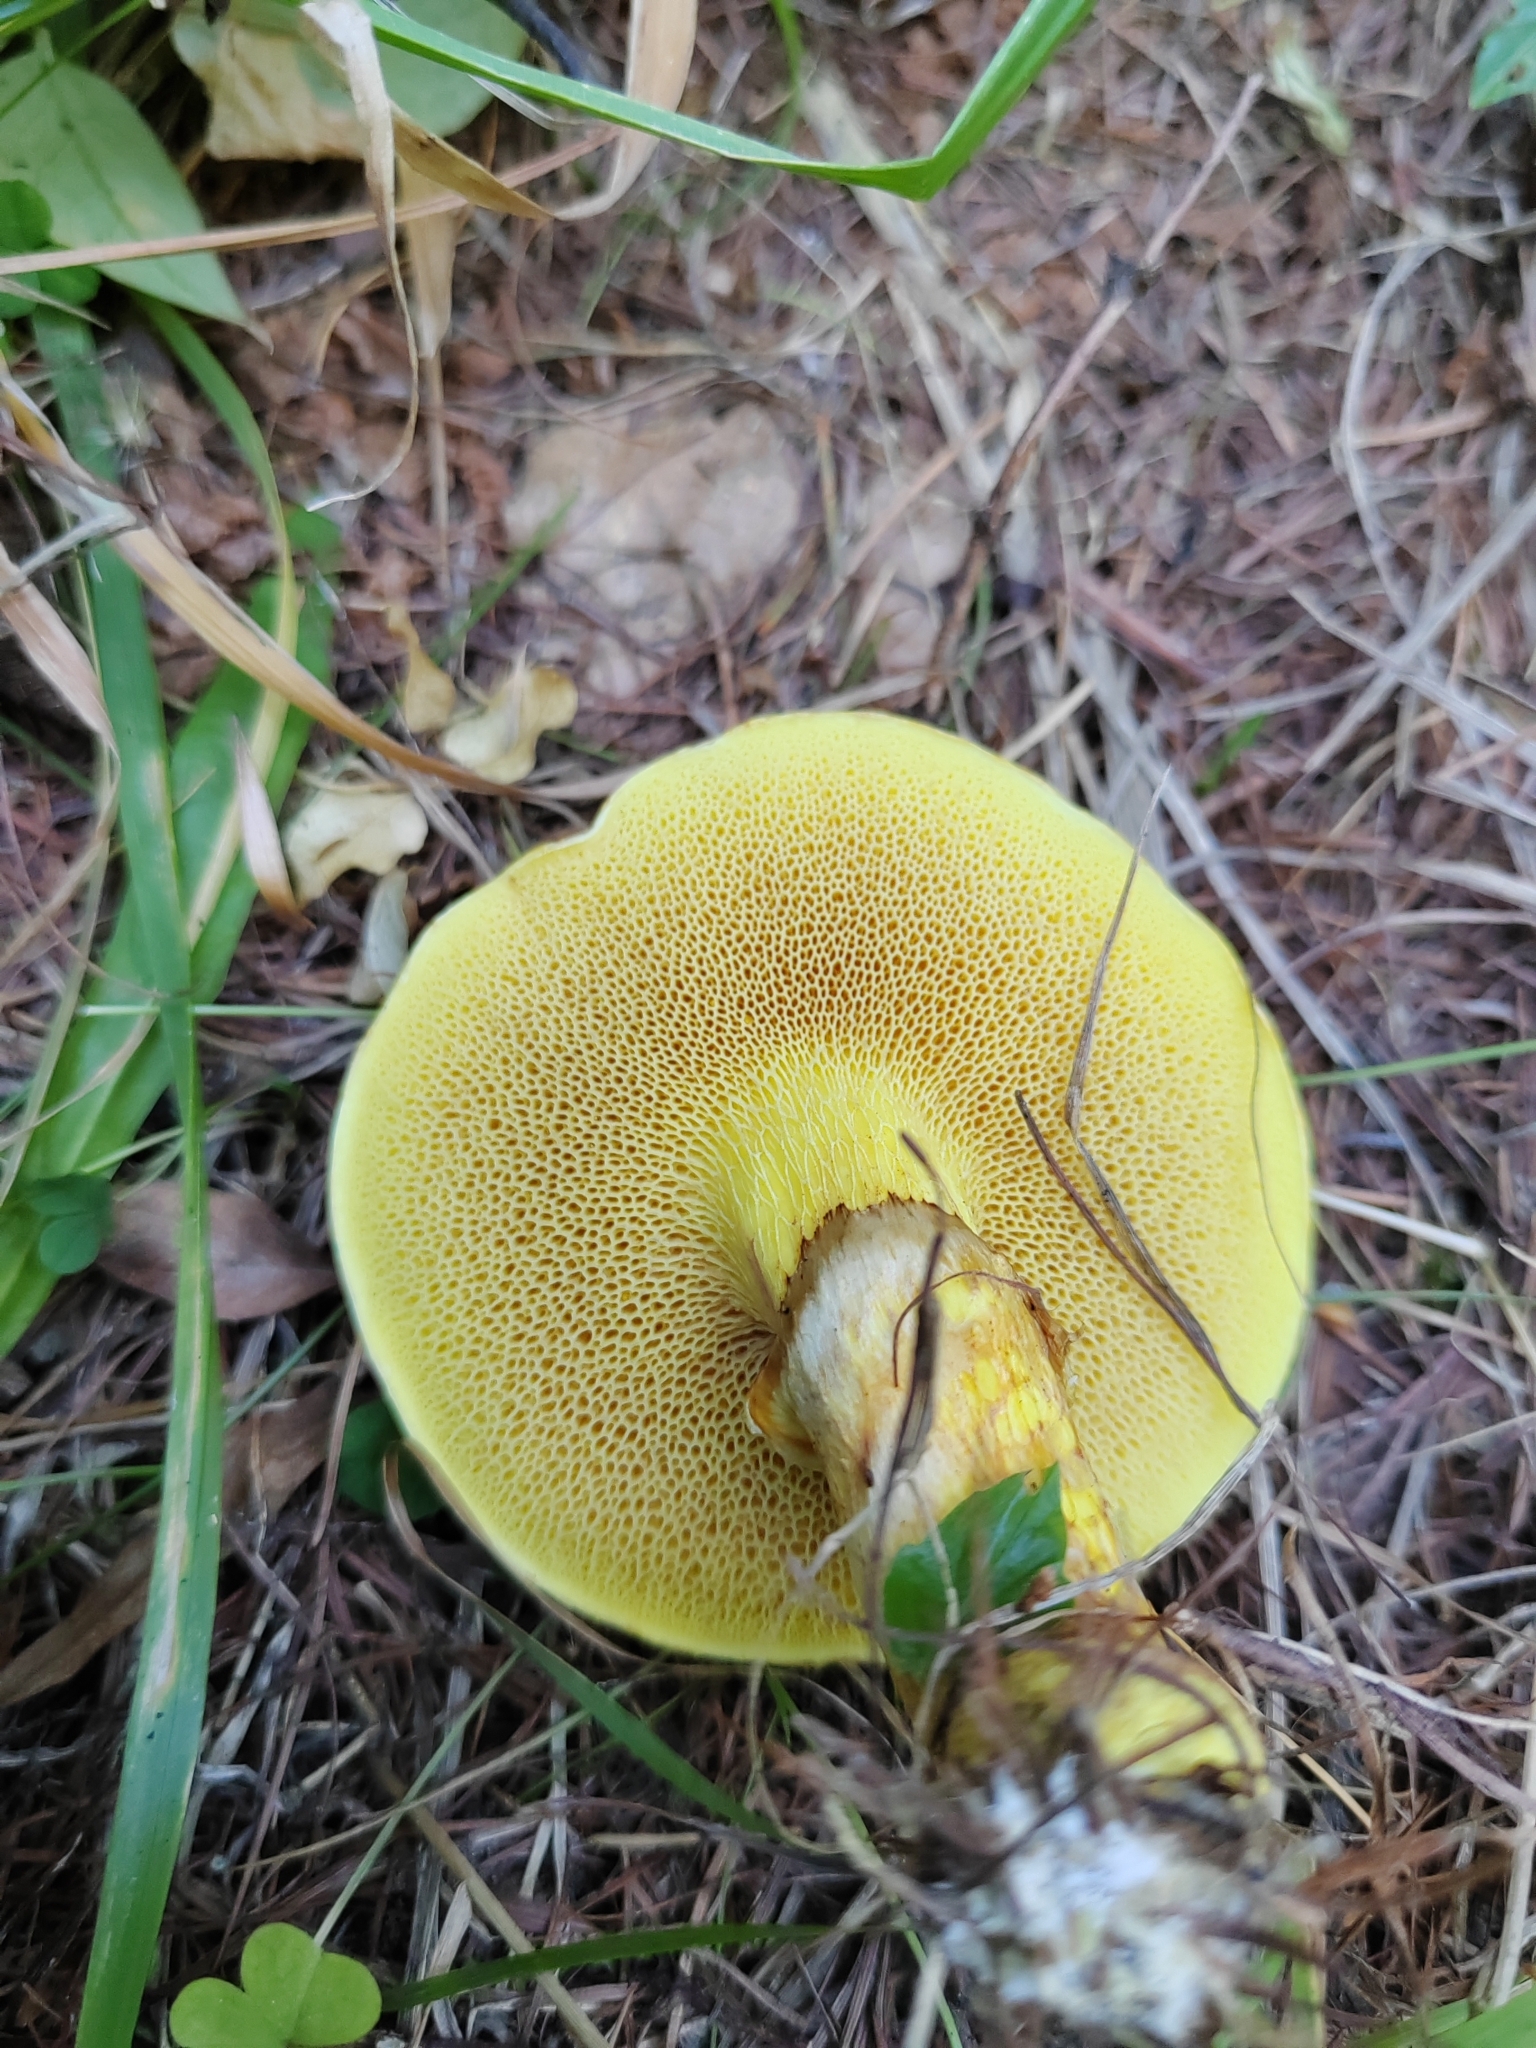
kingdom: Fungi
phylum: Basidiomycota
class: Agaricomycetes
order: Boletales
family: Suillaceae
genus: Suillus
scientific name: Suillus grevillei
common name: Larch bolete
